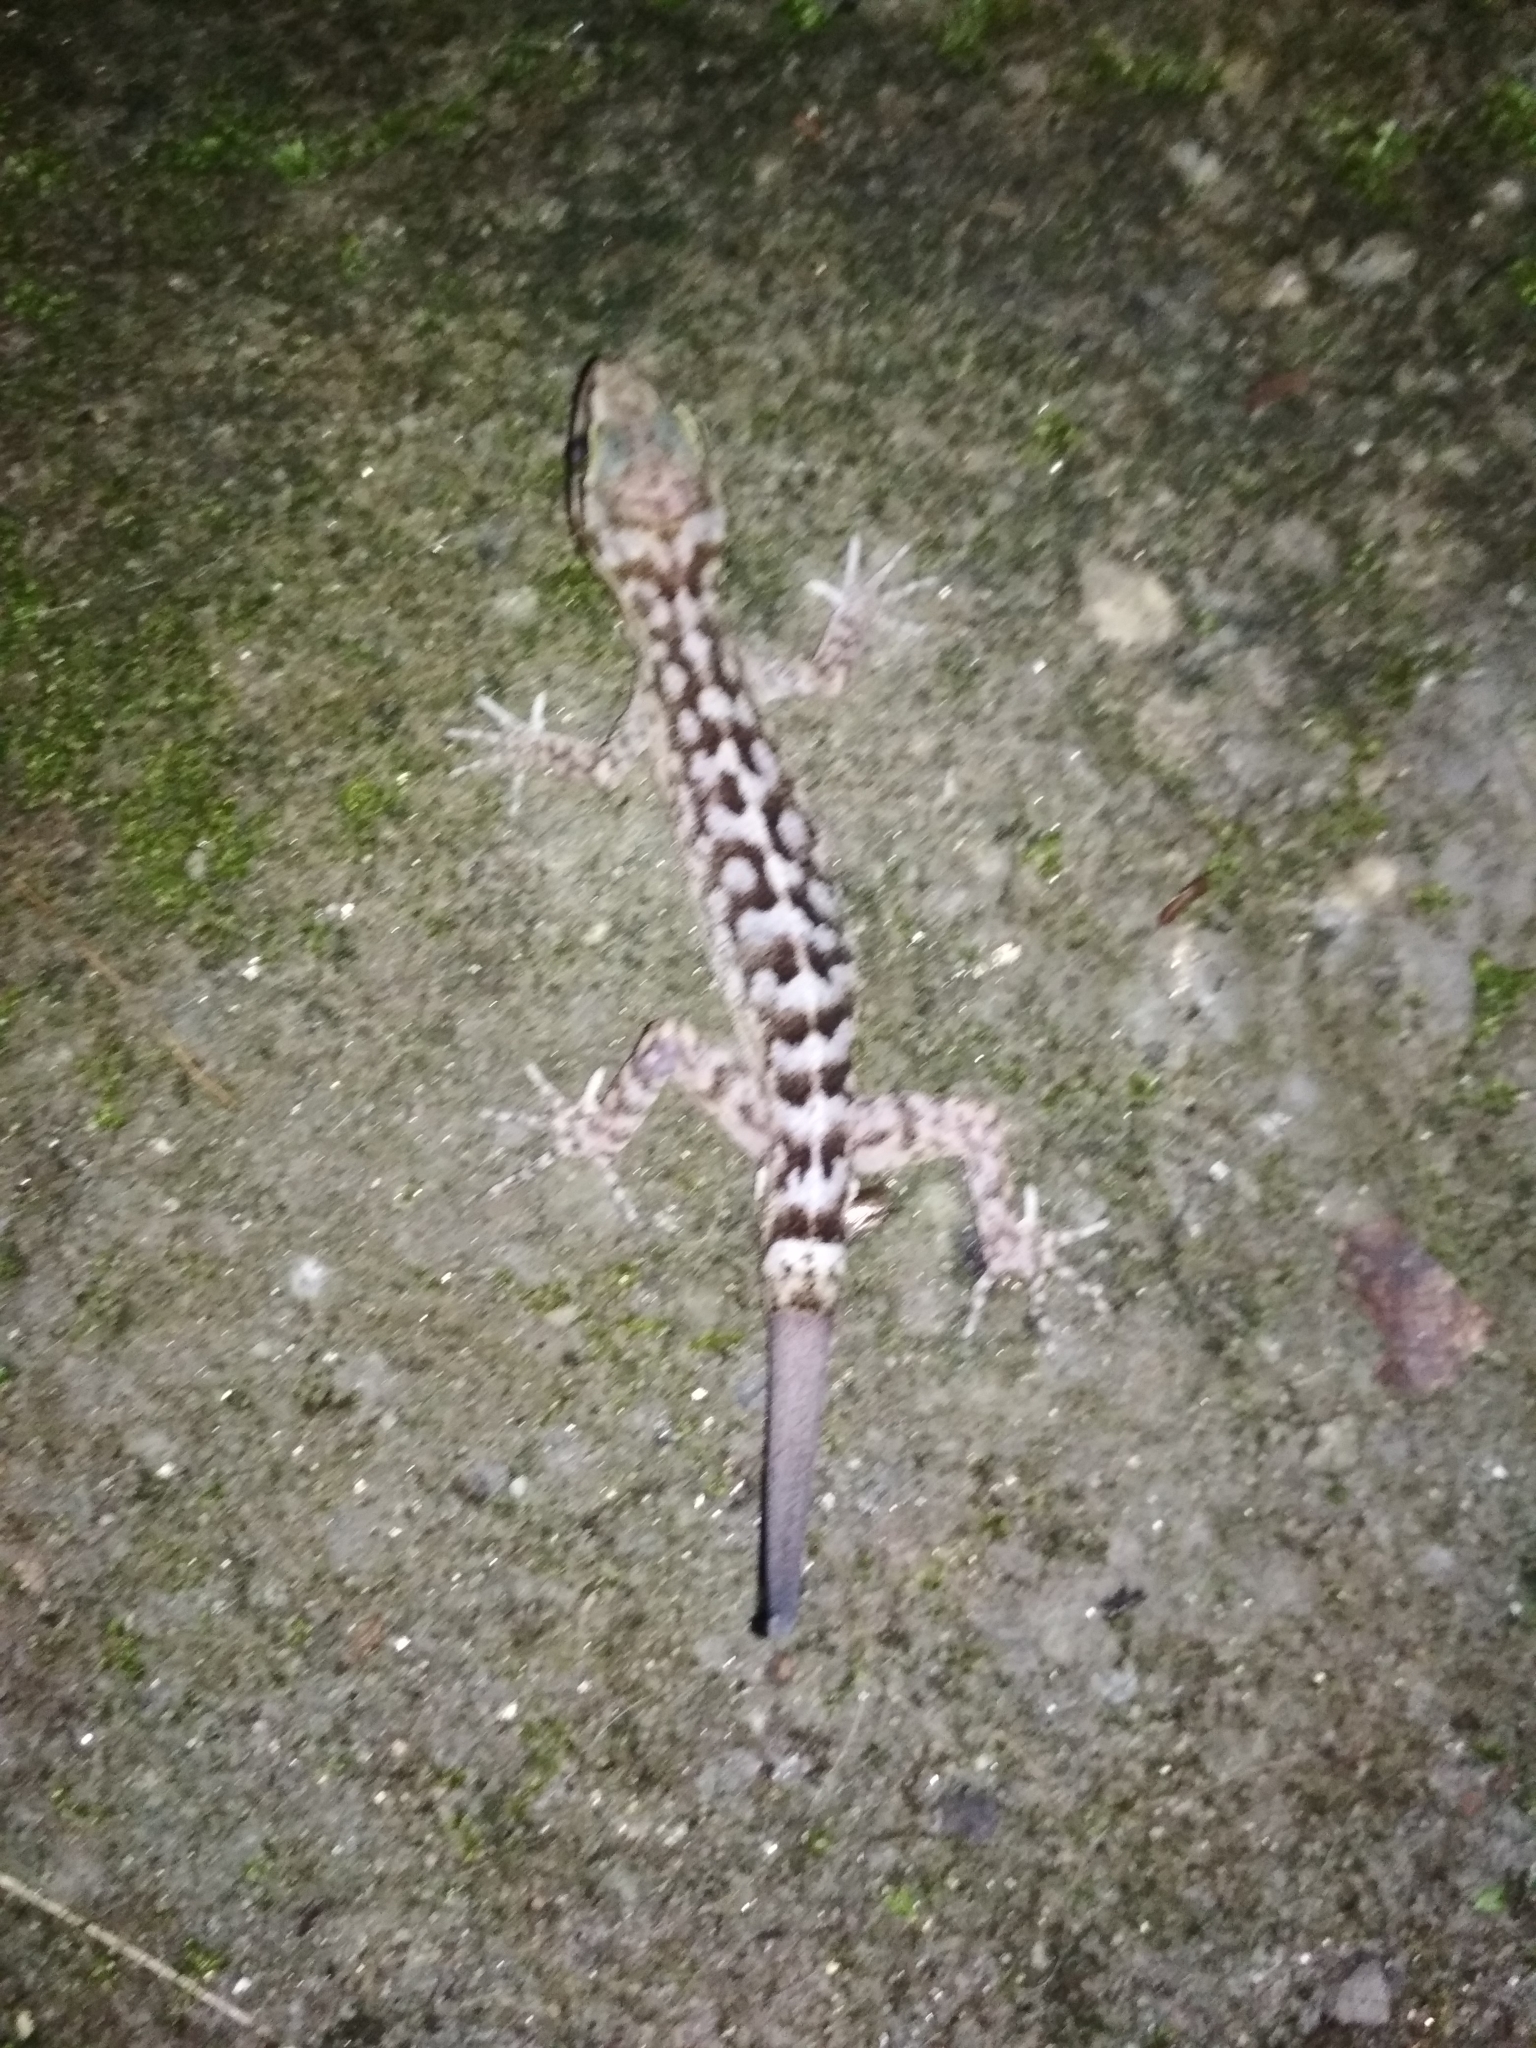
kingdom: Animalia
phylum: Chordata
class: Squamata
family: Gekkonidae
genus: Cyrtodactylus
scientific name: Cyrtodactylus khasiensis
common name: Khasi hills bent-toed gecko
